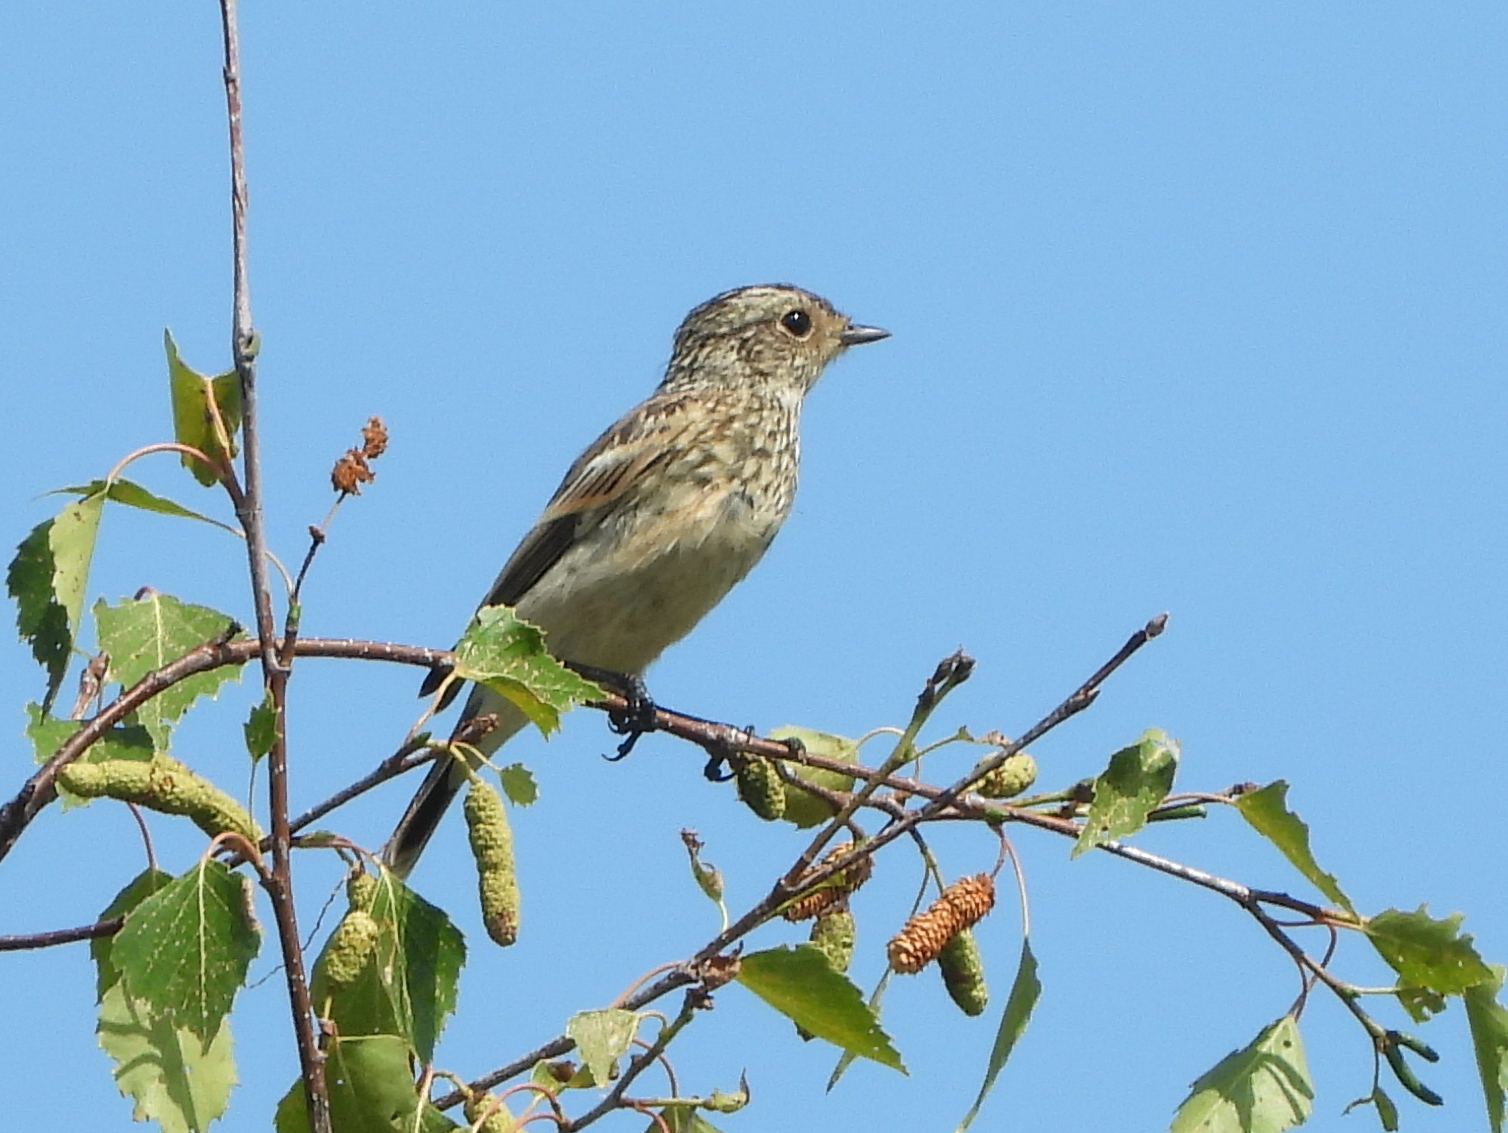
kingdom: Animalia
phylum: Chordata
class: Aves
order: Passeriformes
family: Muscicapidae
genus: Saxicola
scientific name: Saxicola maurus
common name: Siberian stonechat
